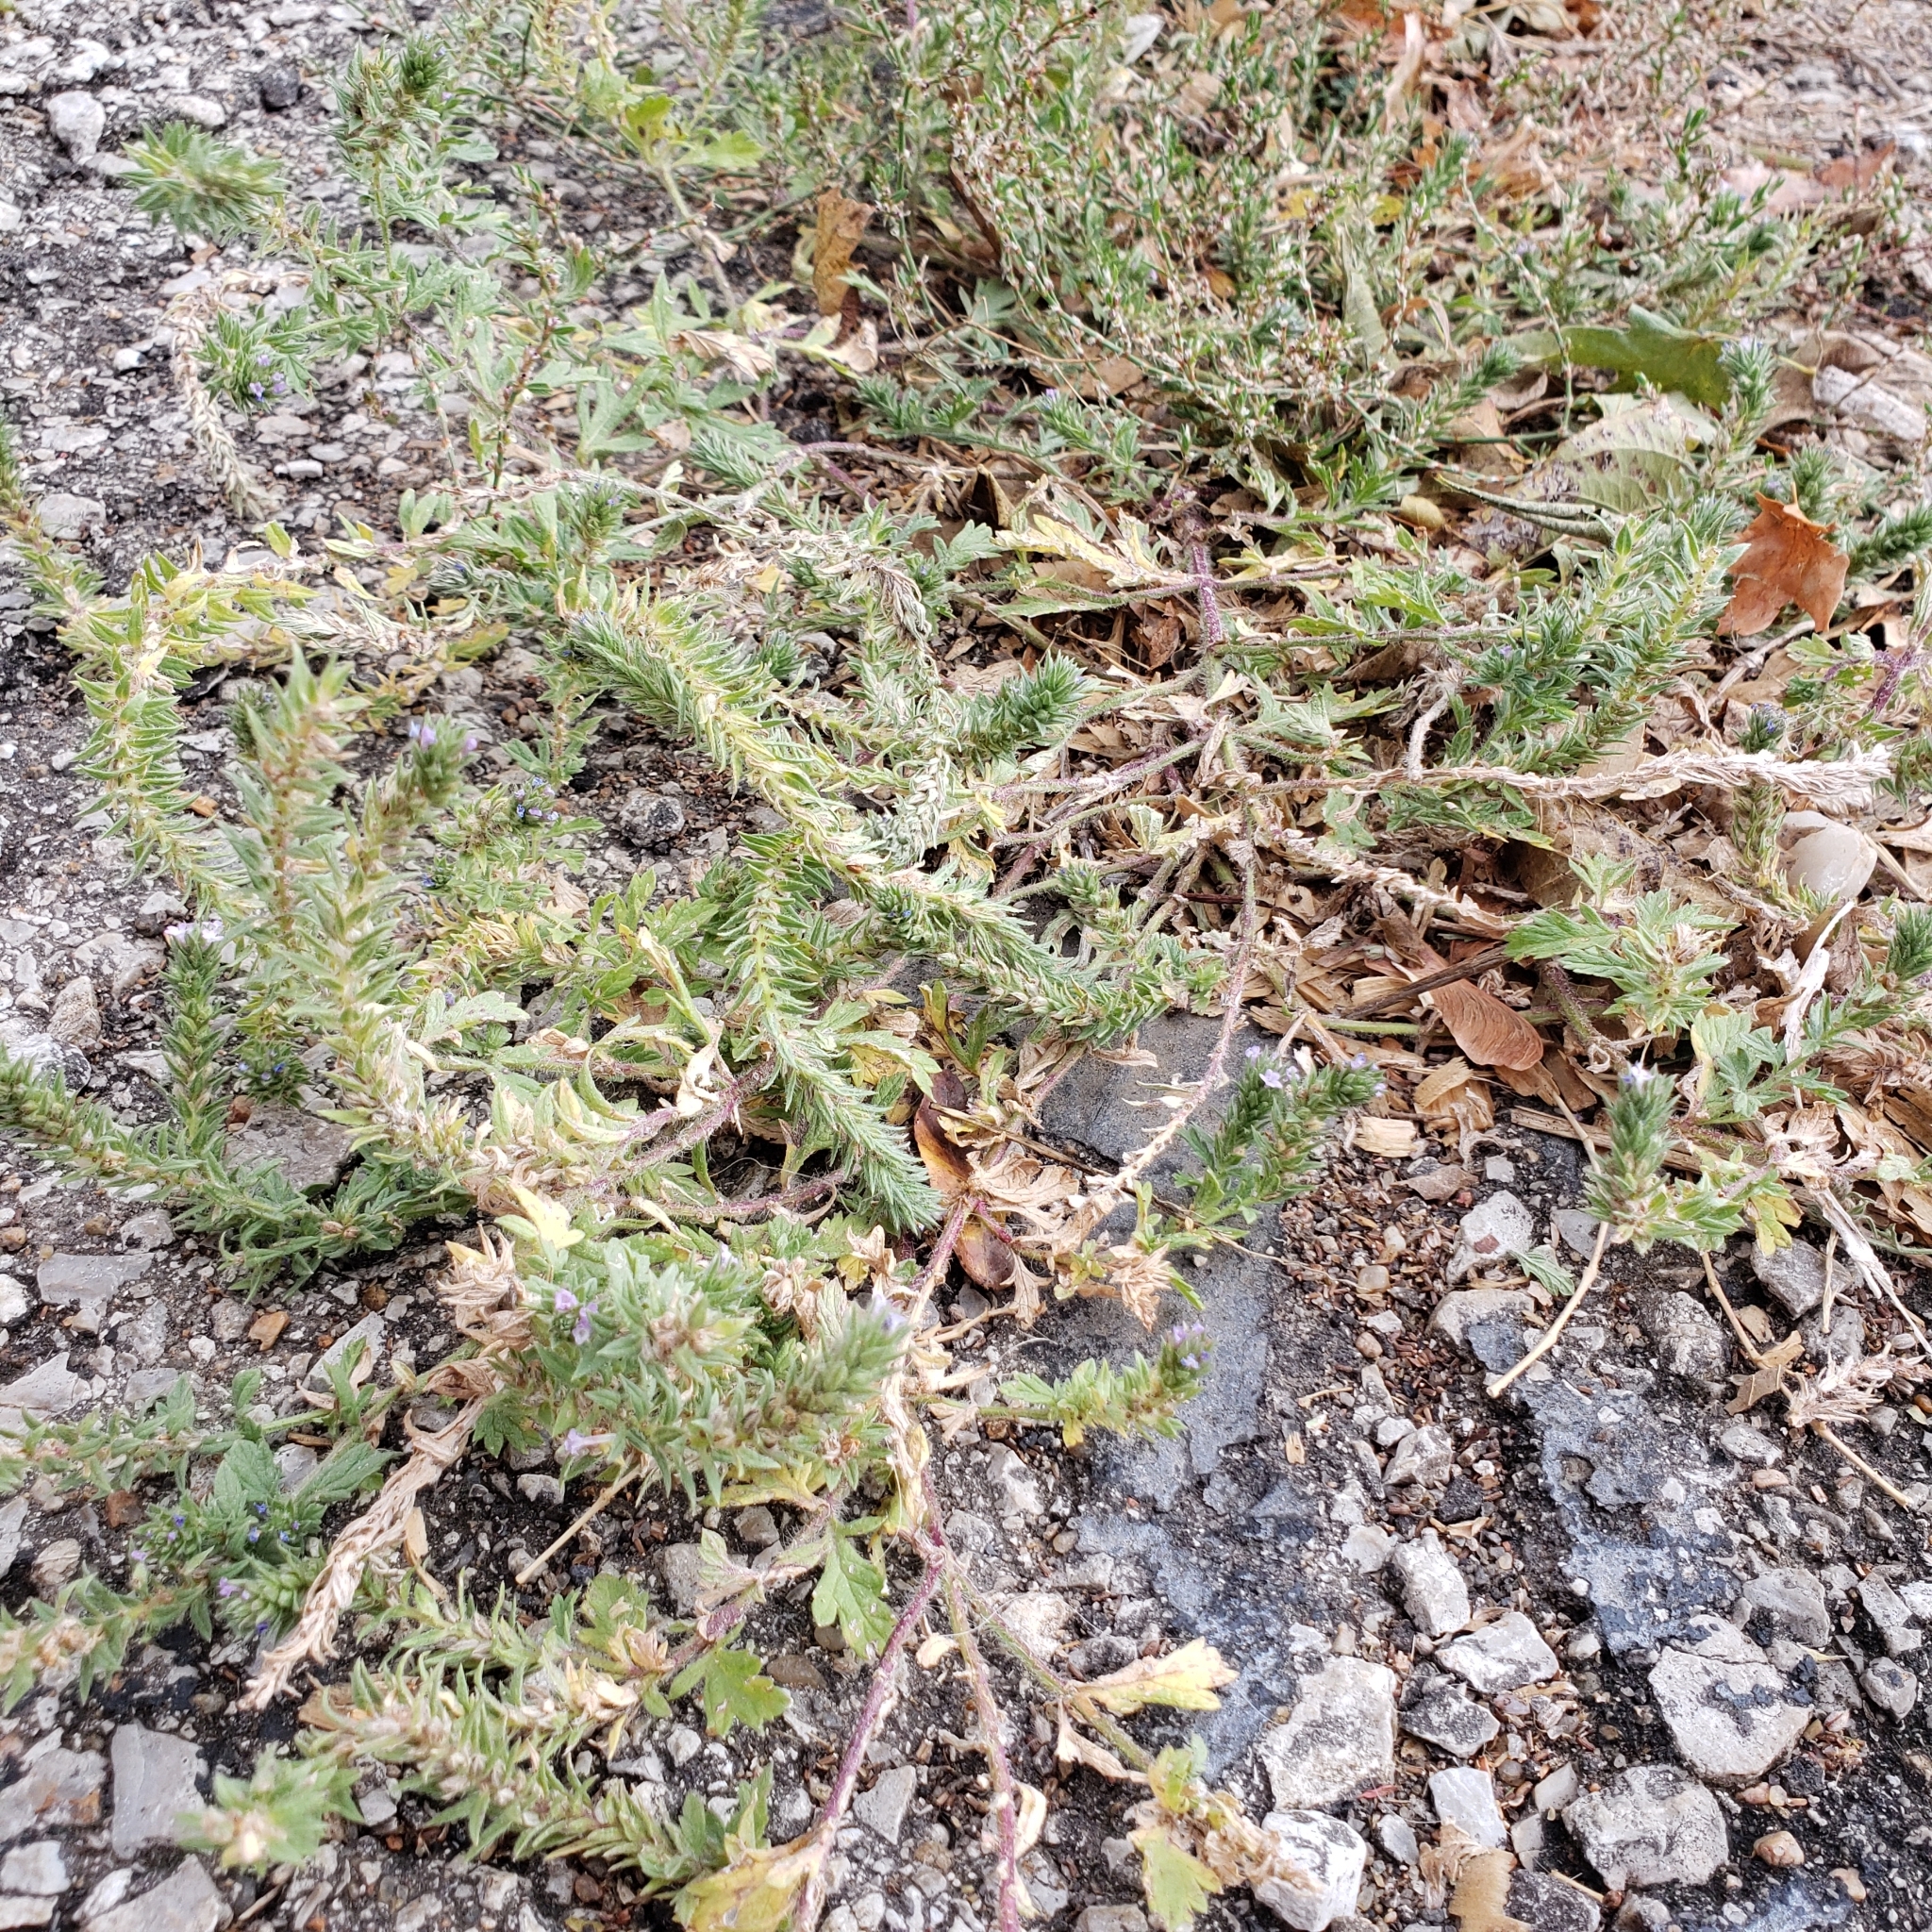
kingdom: Plantae
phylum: Tracheophyta
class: Magnoliopsida
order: Lamiales
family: Verbenaceae
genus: Verbena
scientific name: Verbena bracteata
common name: Bracted vervain
